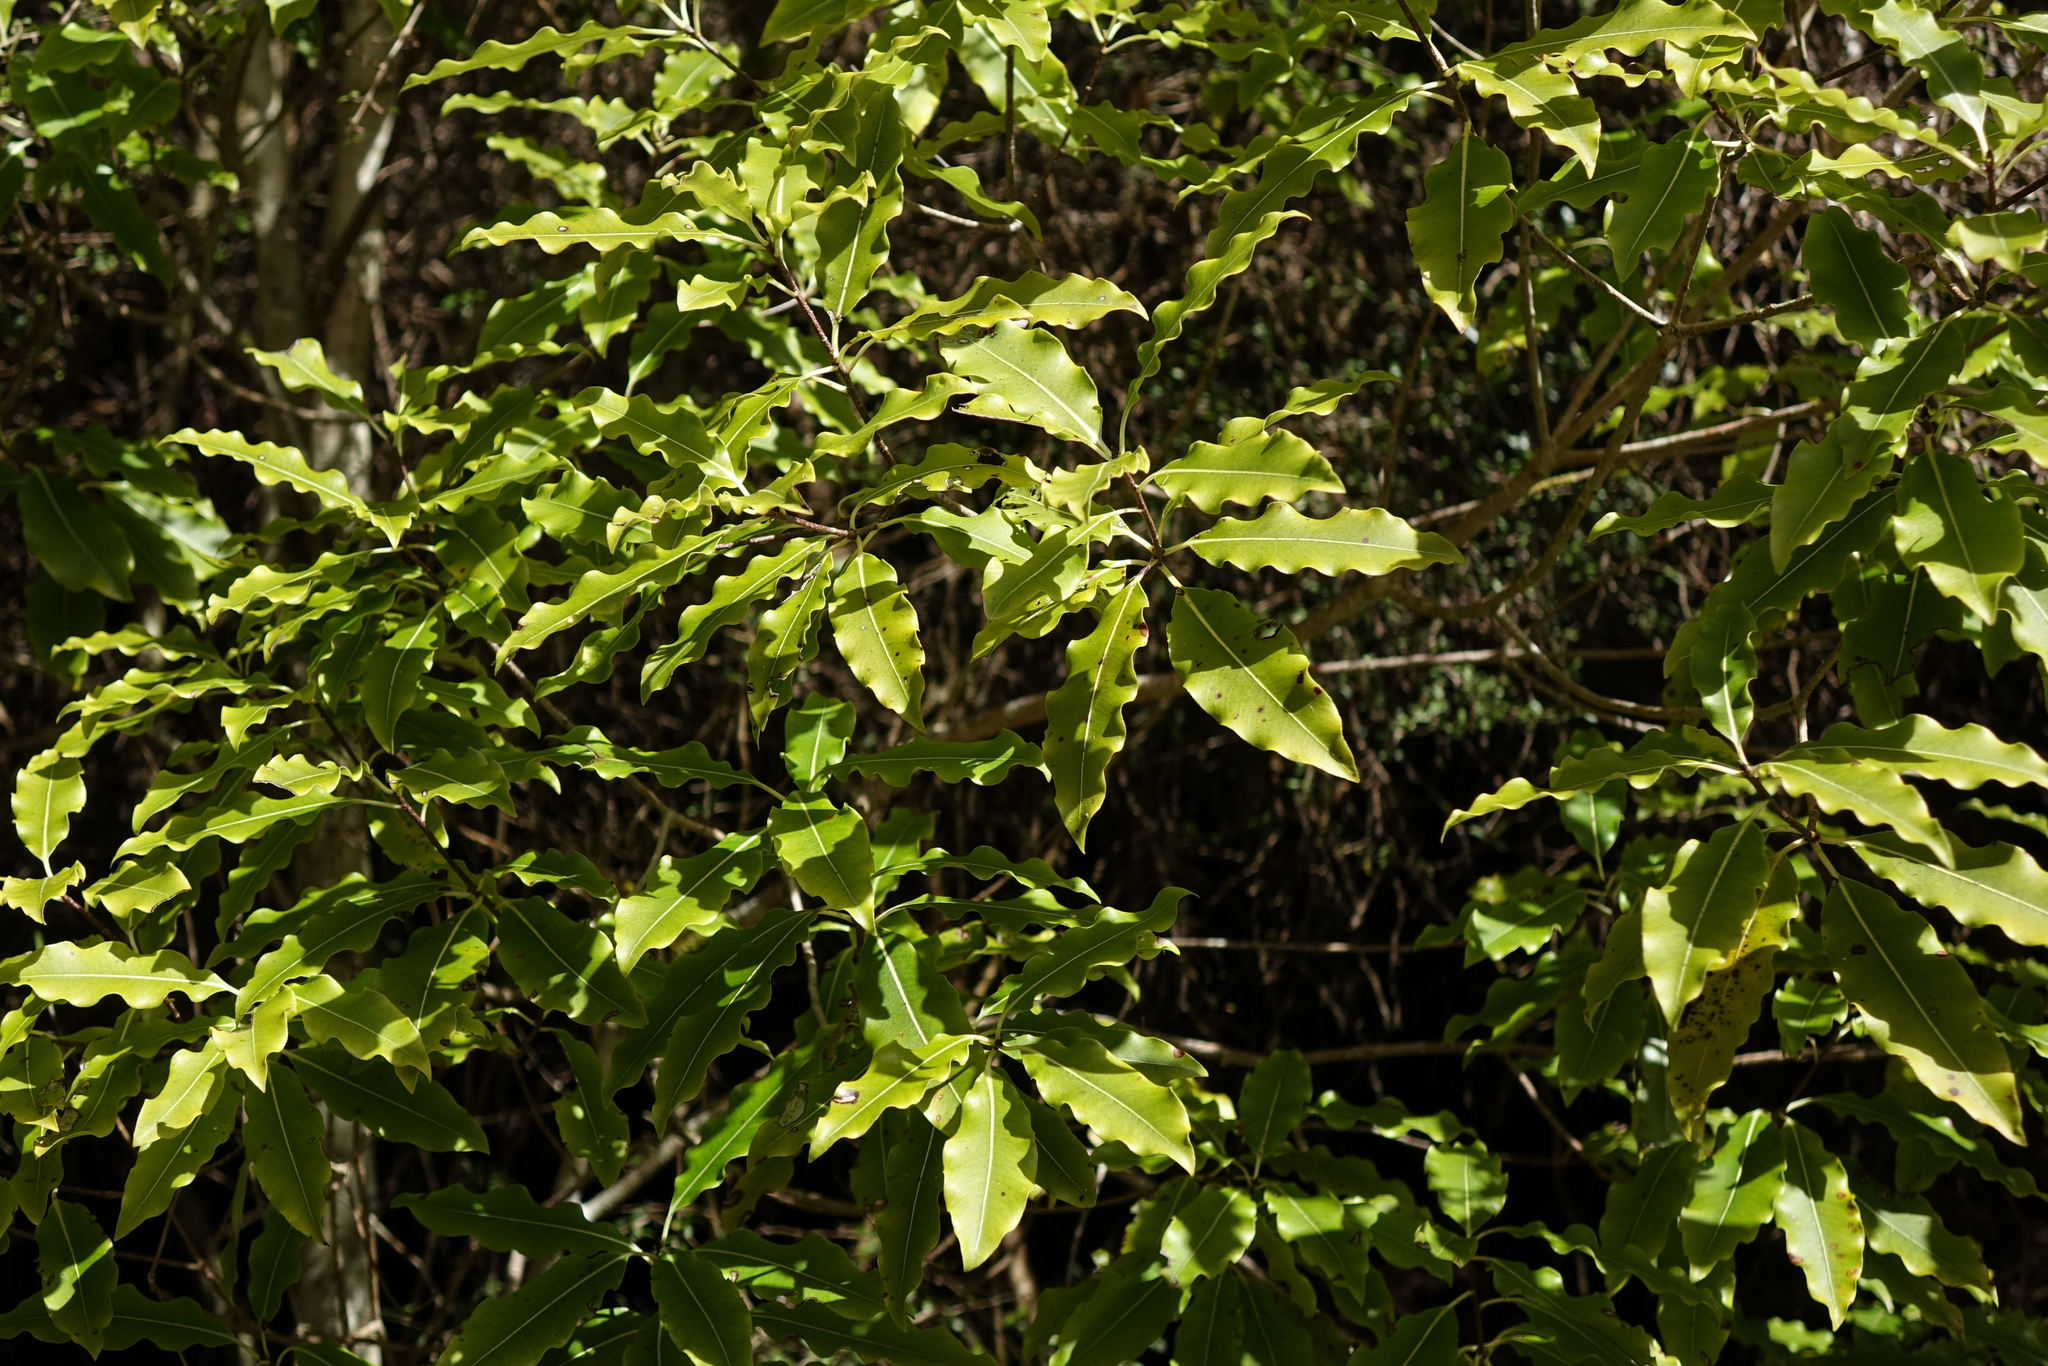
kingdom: Plantae
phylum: Tracheophyta
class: Magnoliopsida
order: Apiales
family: Pittosporaceae
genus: Pittosporum
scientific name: Pittosporum eugenioides
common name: Lemonwood
